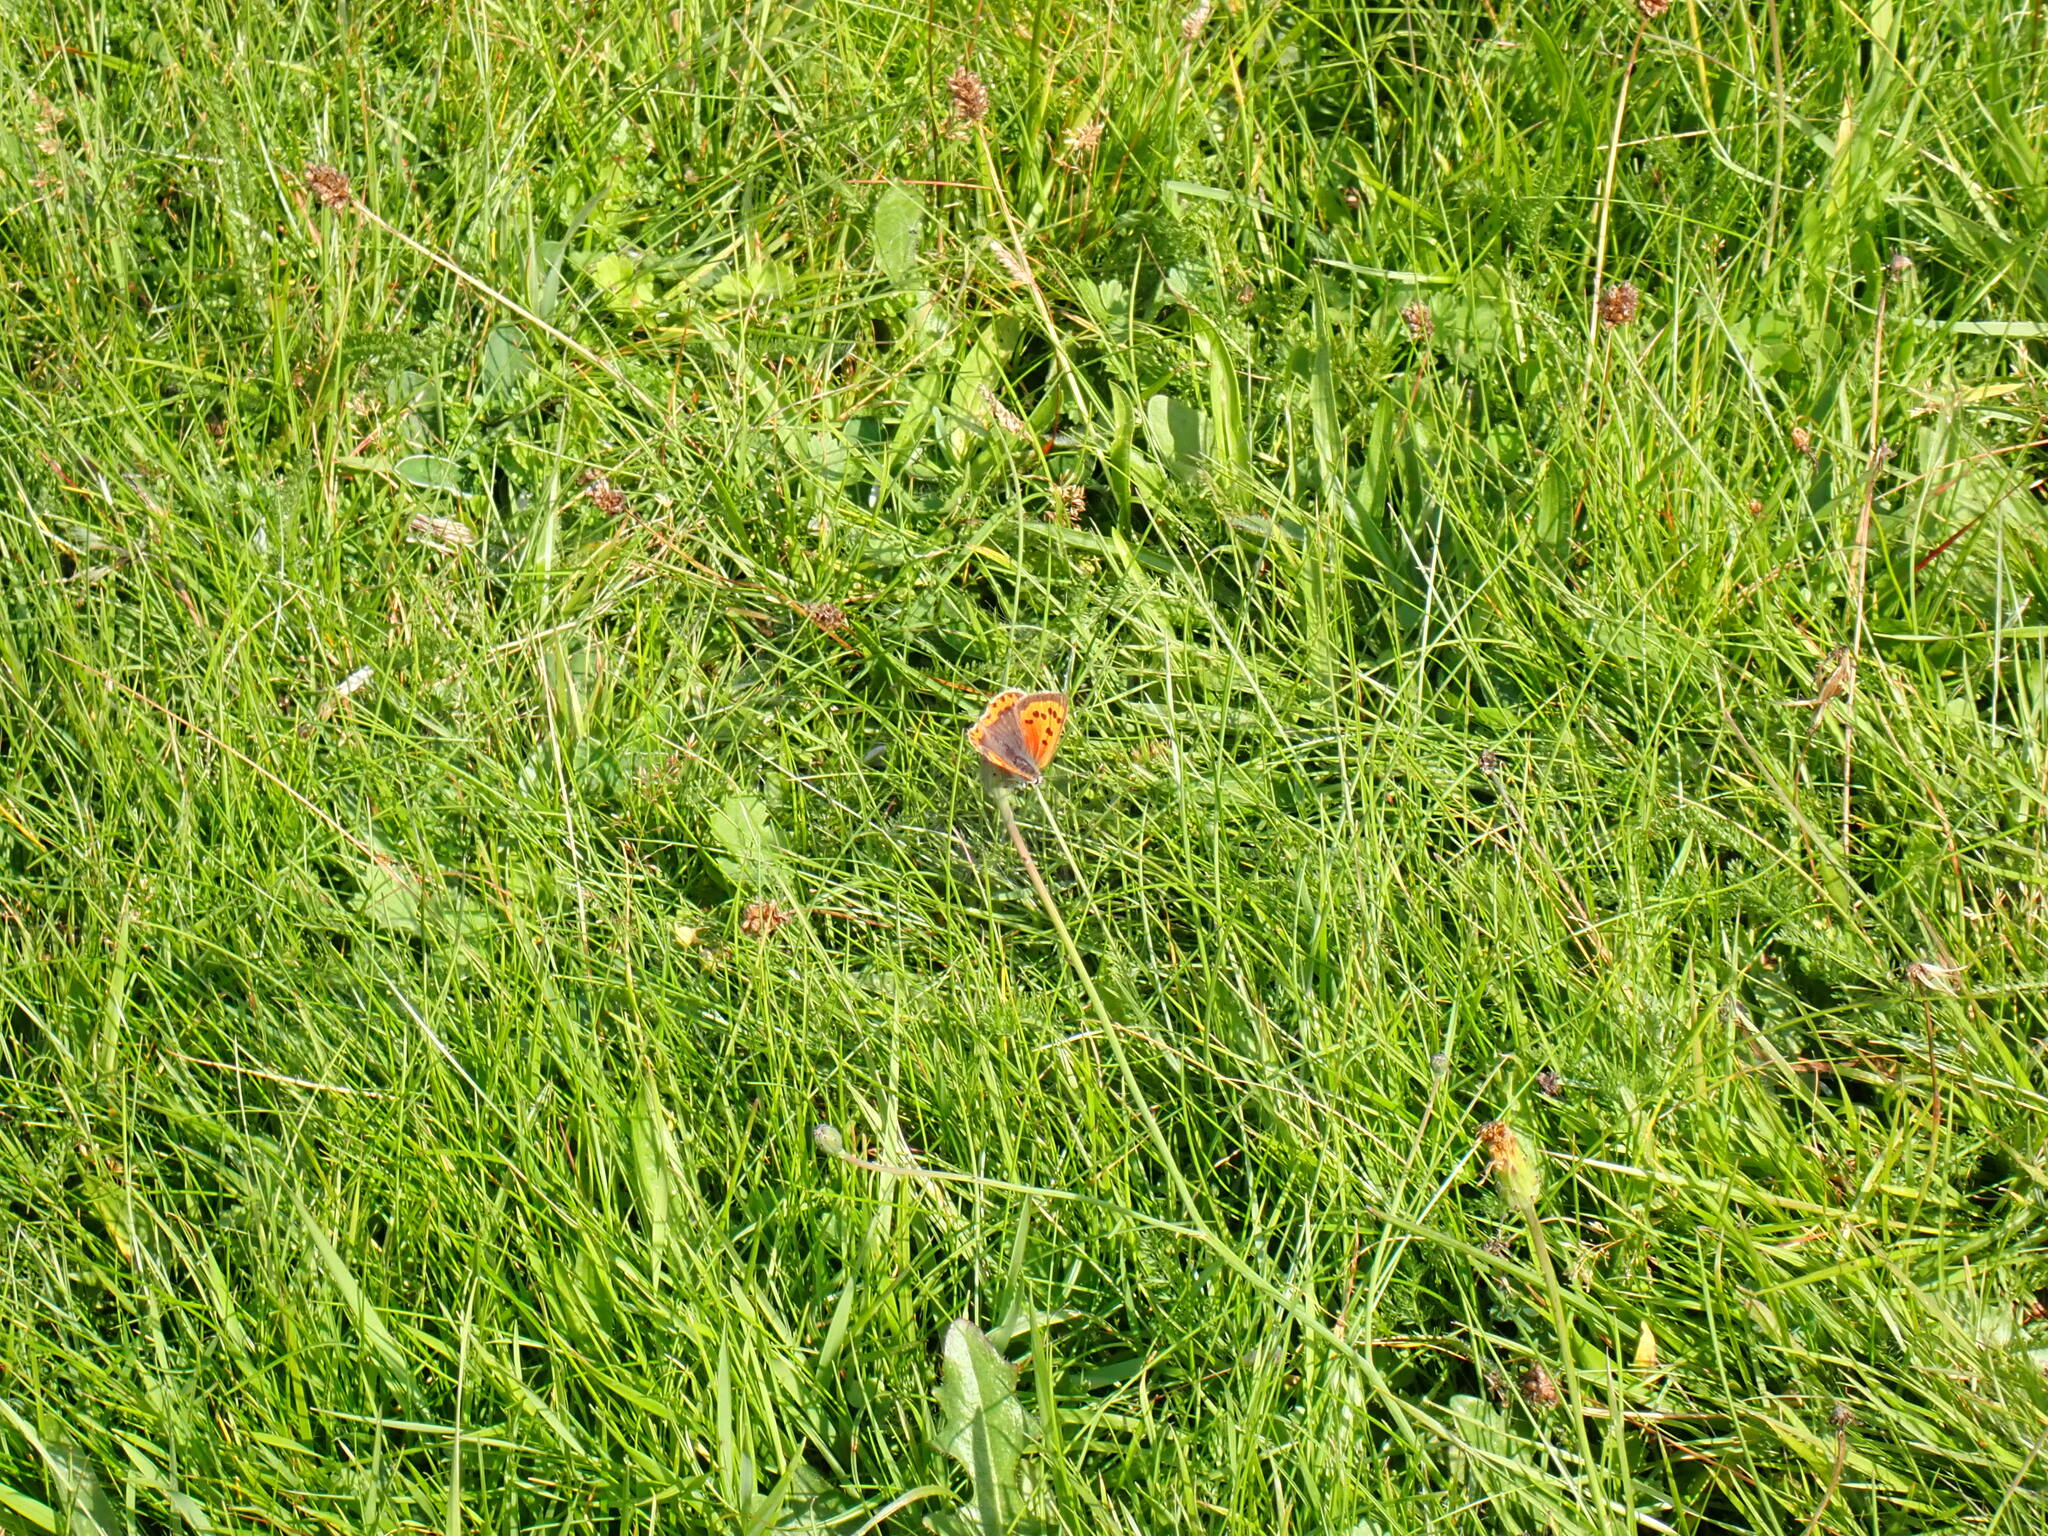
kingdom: Animalia
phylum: Arthropoda
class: Insecta
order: Lepidoptera
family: Lycaenidae
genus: Lycaena
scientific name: Lycaena phlaeas
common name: Small copper
